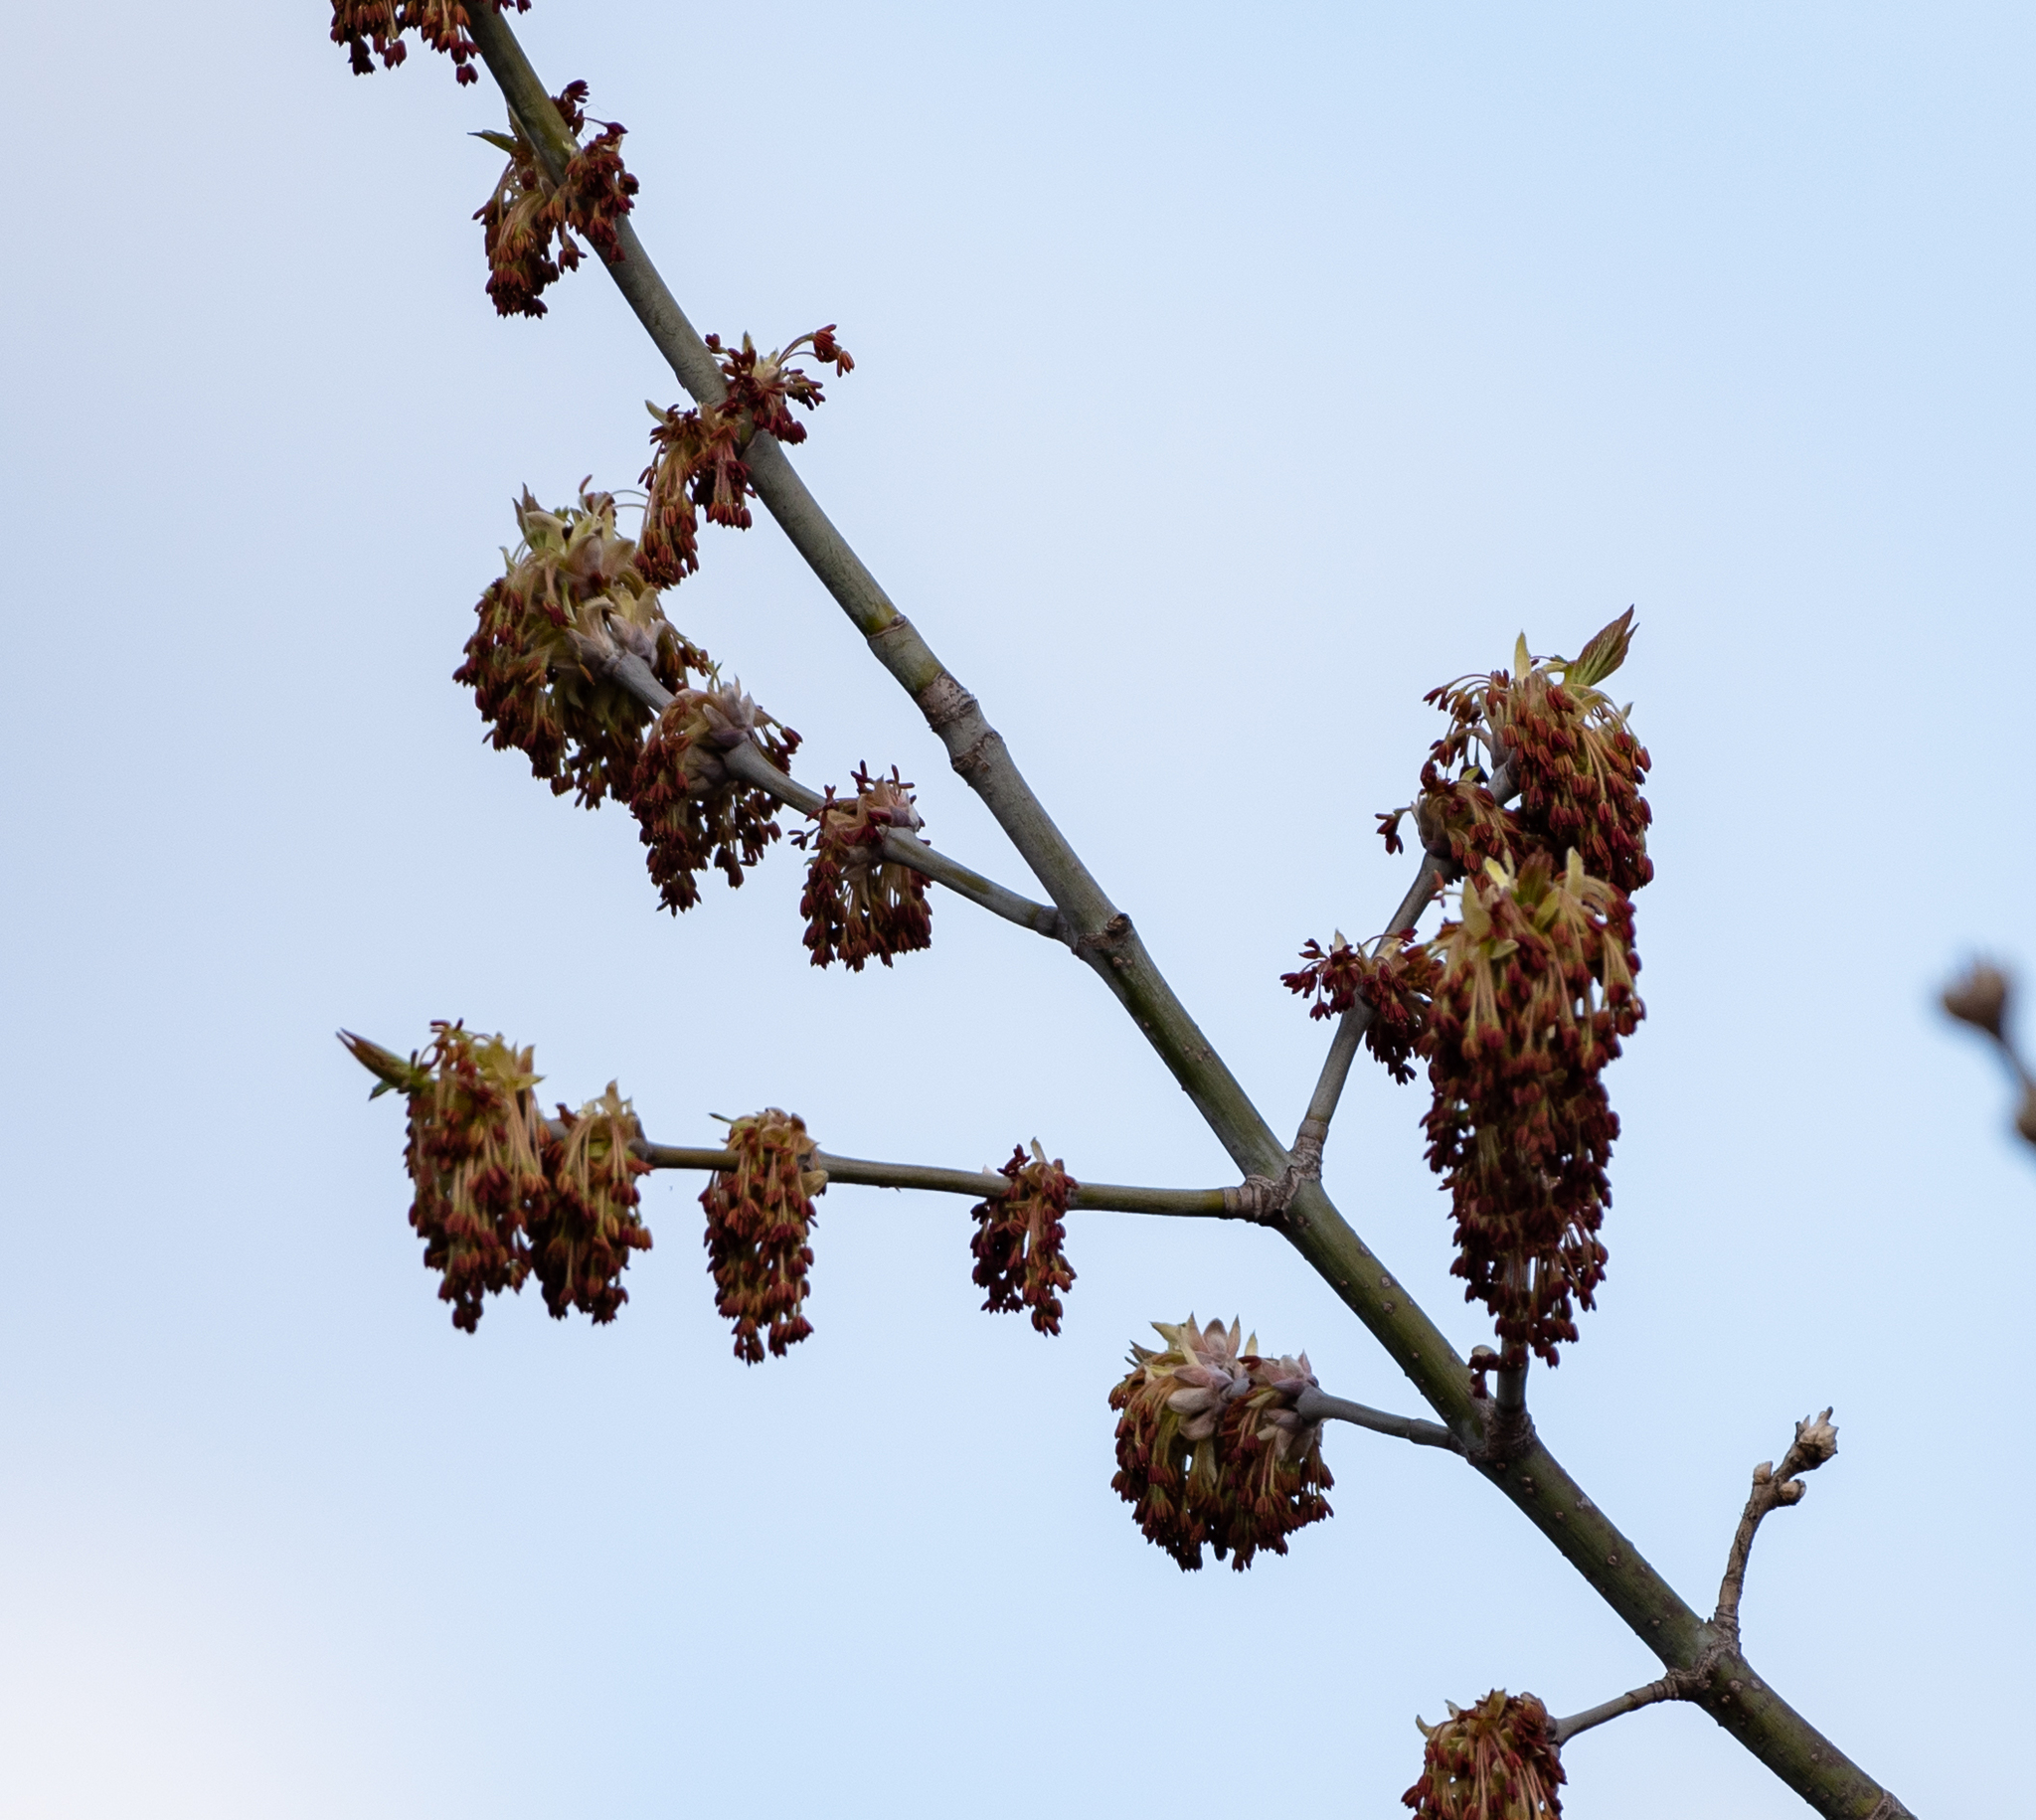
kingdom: Plantae
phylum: Tracheophyta
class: Magnoliopsida
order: Sapindales
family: Sapindaceae
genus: Acer
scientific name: Acer negundo
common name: Ashleaf maple
